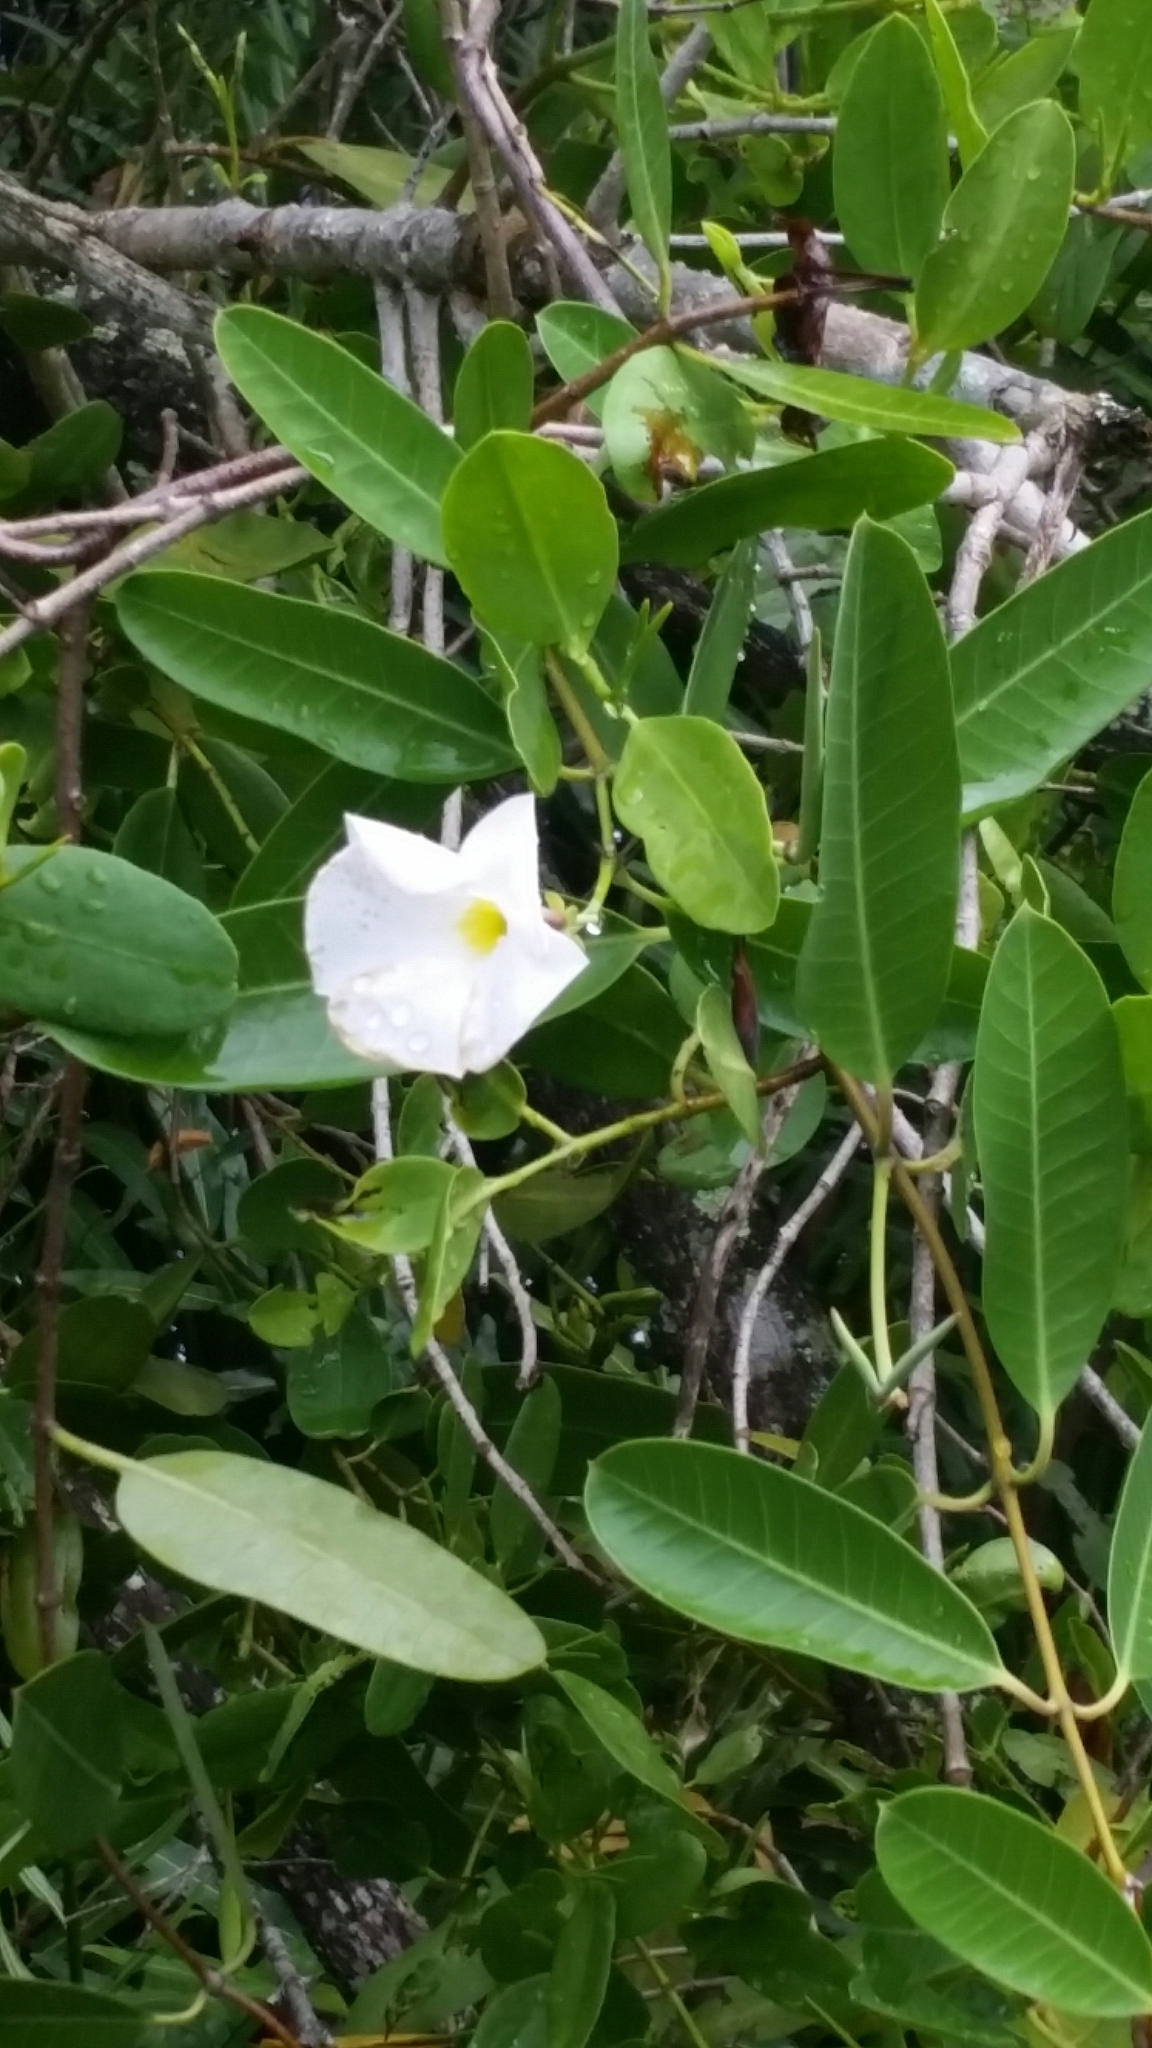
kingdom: Plantae
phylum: Tracheophyta
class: Magnoliopsida
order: Gentianales
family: Apocynaceae
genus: Rhabdadenia
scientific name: Rhabdadenia biflora
